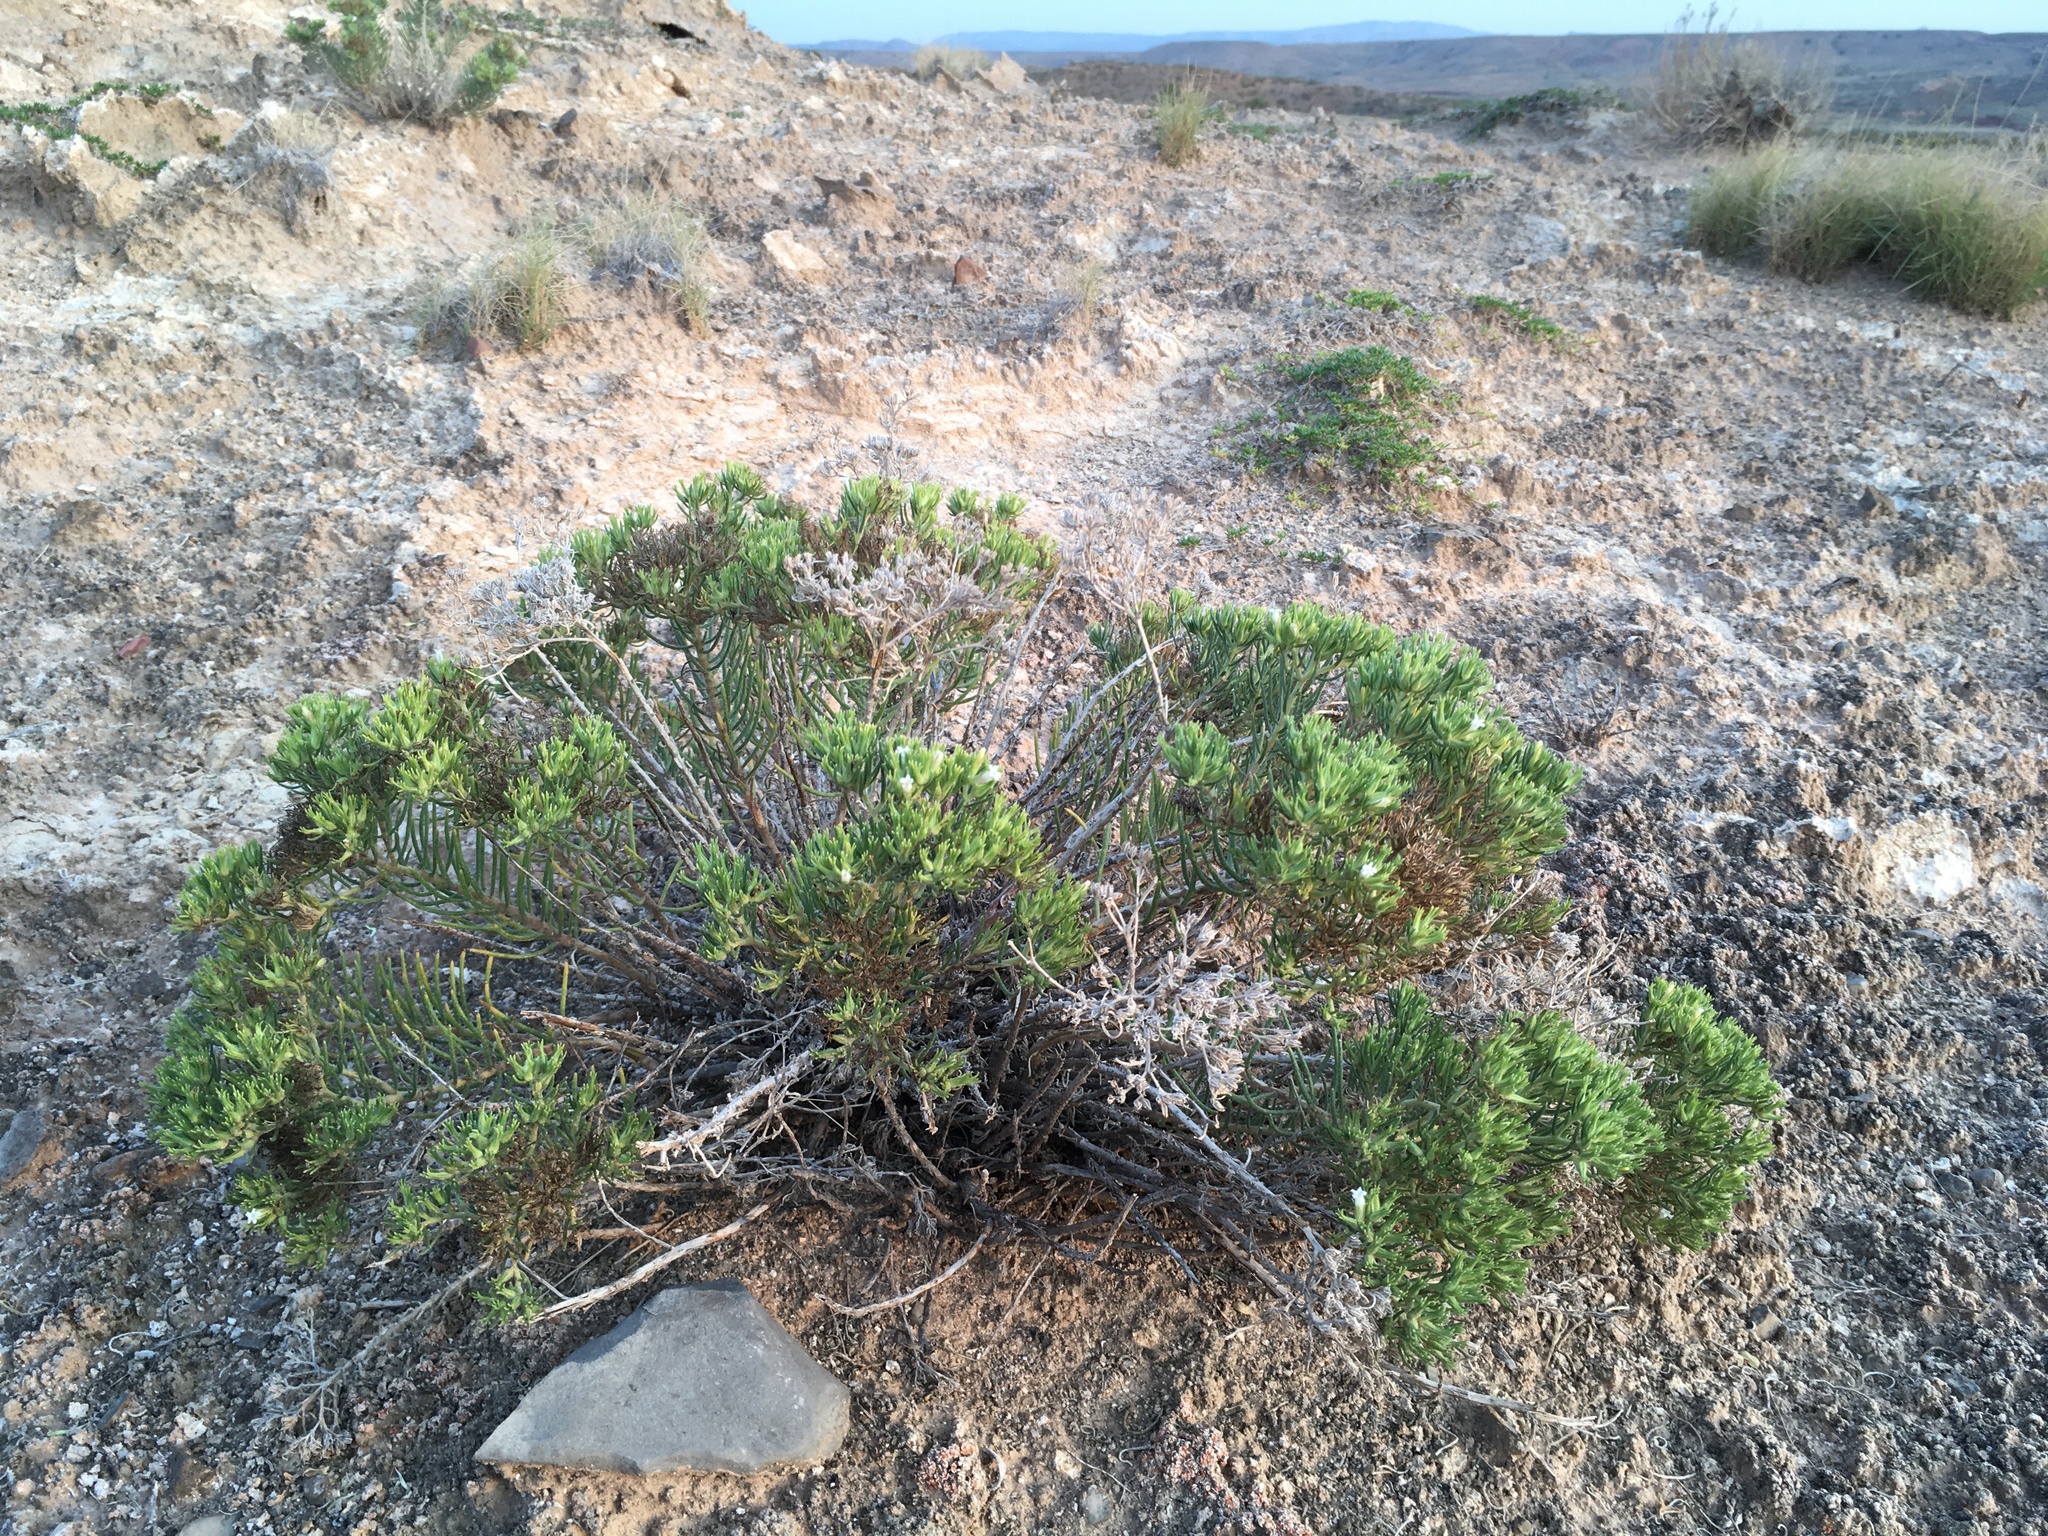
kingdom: Plantae
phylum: Tracheophyta
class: Magnoliopsida
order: Boraginales
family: Namaceae
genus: Andropus
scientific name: Andropus carnosus
